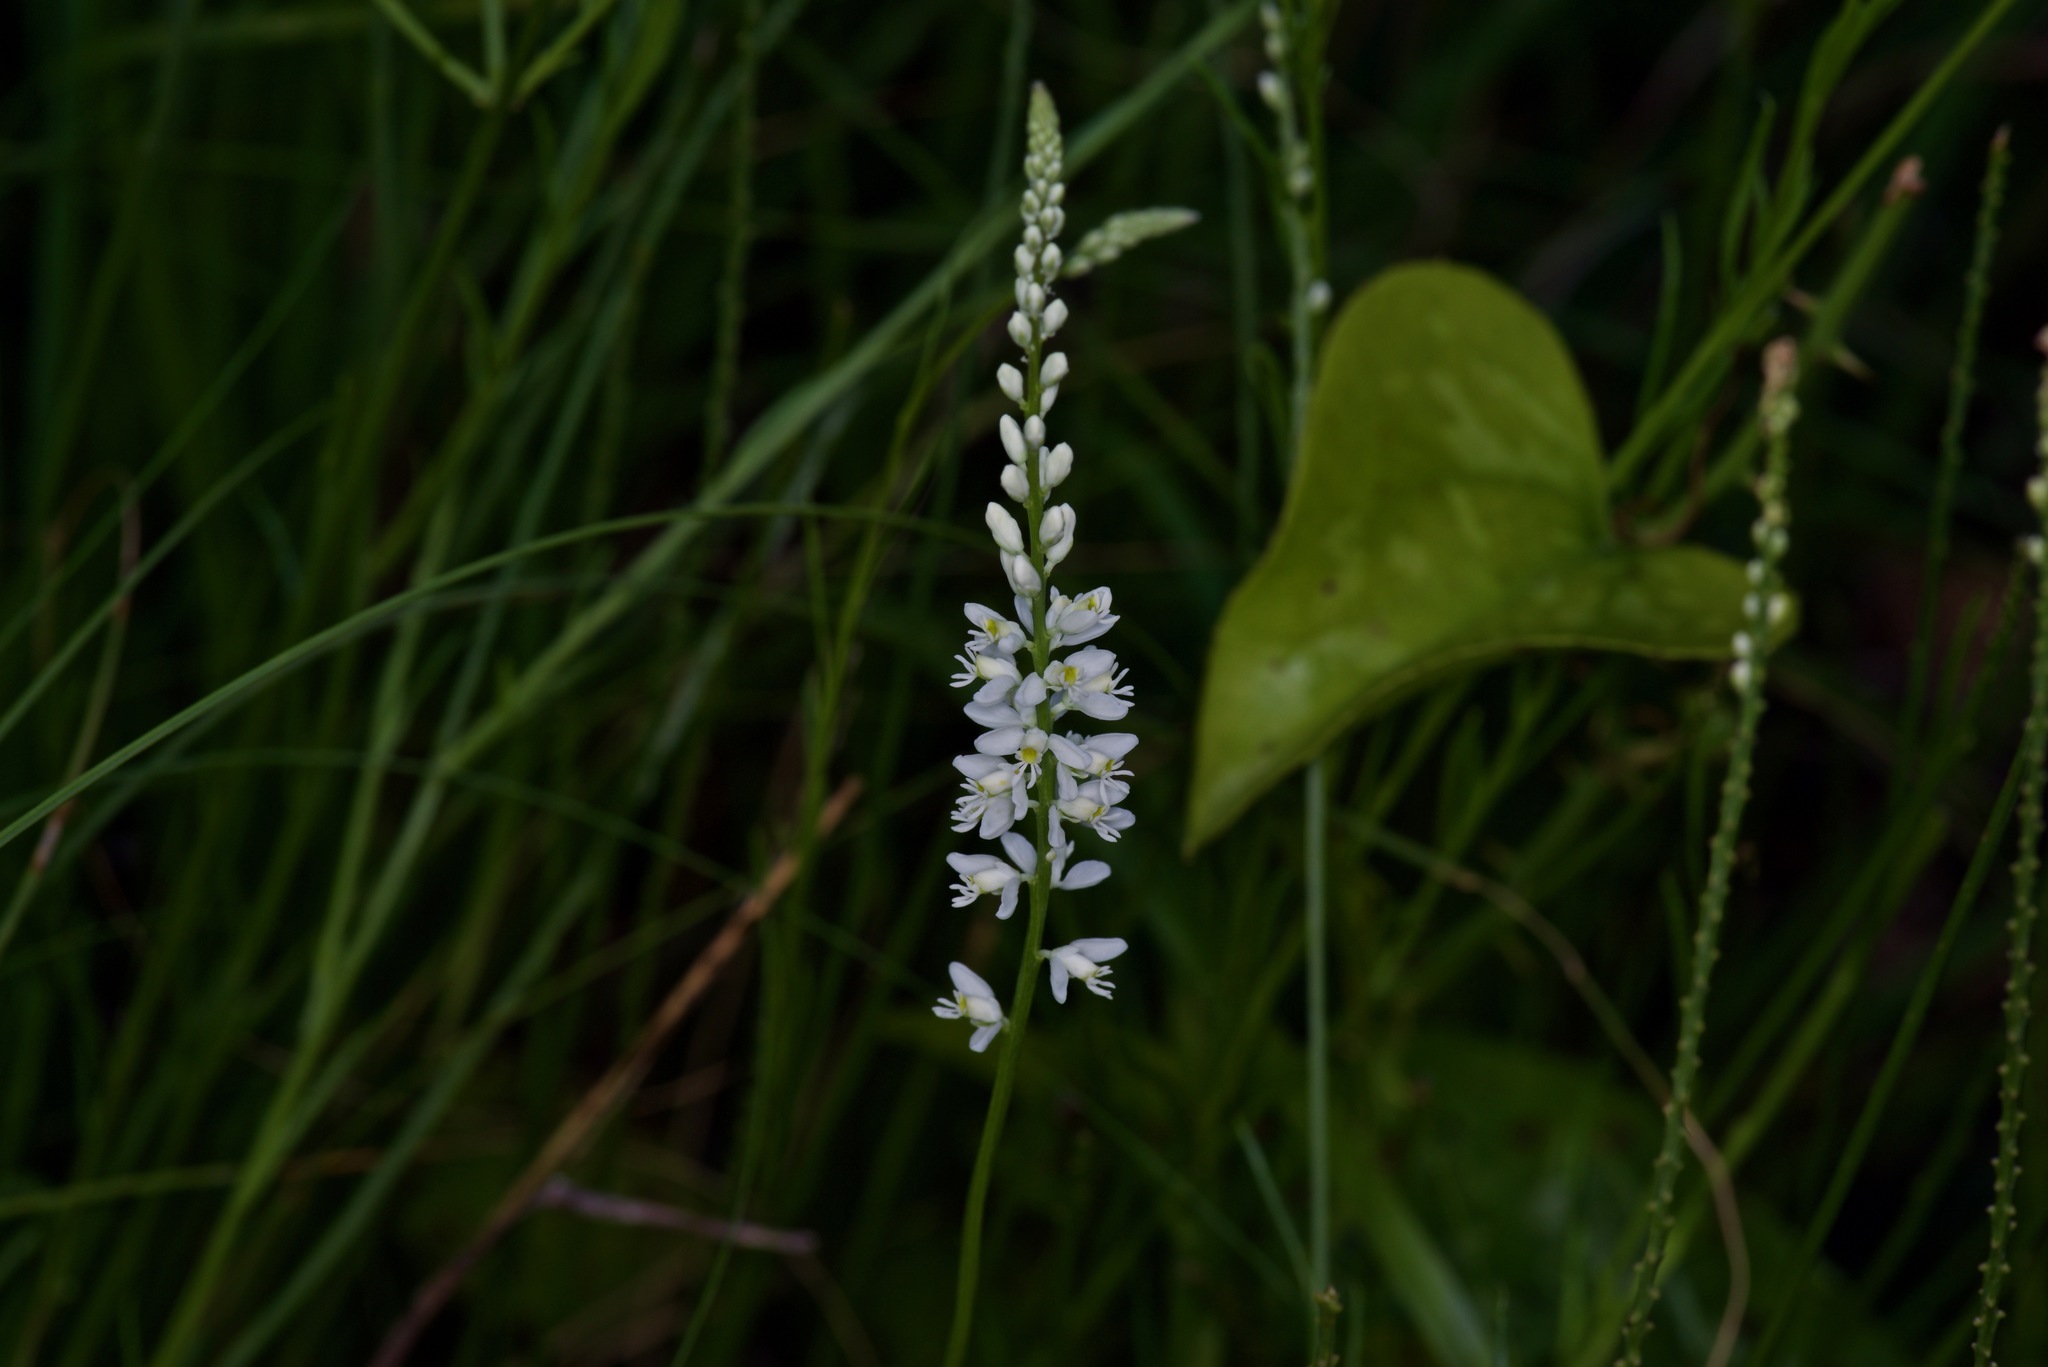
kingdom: Plantae
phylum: Tracheophyta
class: Magnoliopsida
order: Fabales
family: Polygalaceae
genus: Polygala
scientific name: Polygala alba
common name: White milkwort
